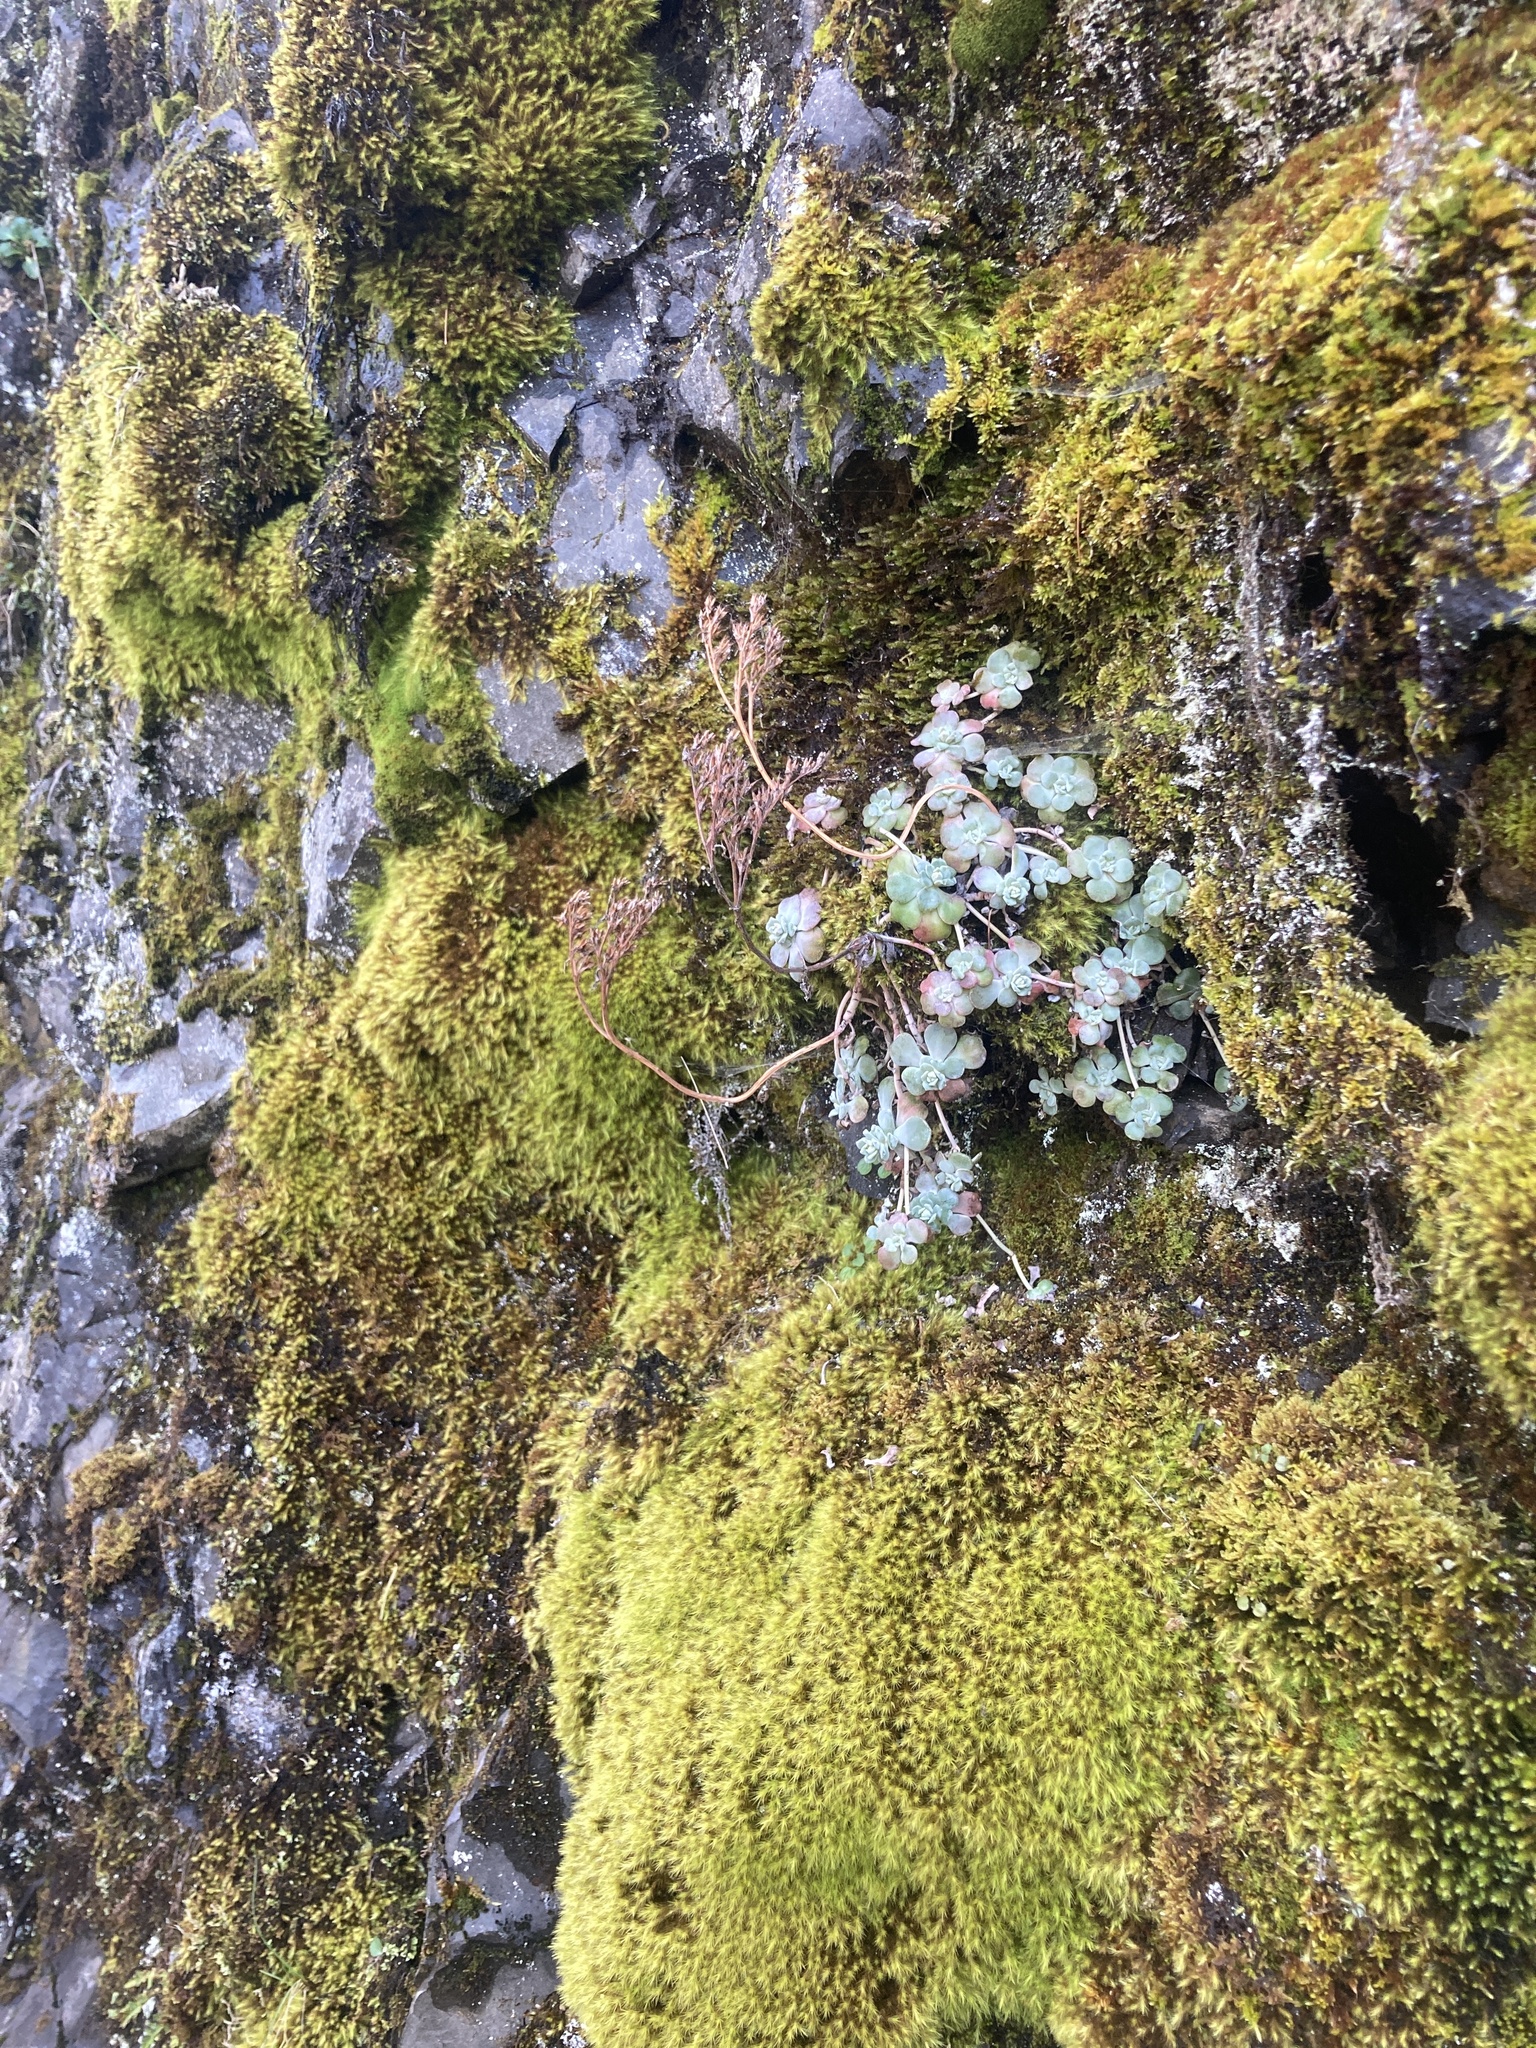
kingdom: Plantae
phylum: Tracheophyta
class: Magnoliopsida
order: Saxifragales
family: Crassulaceae
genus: Sedum
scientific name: Sedum spathulifolium
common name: Colorado stonecrop
